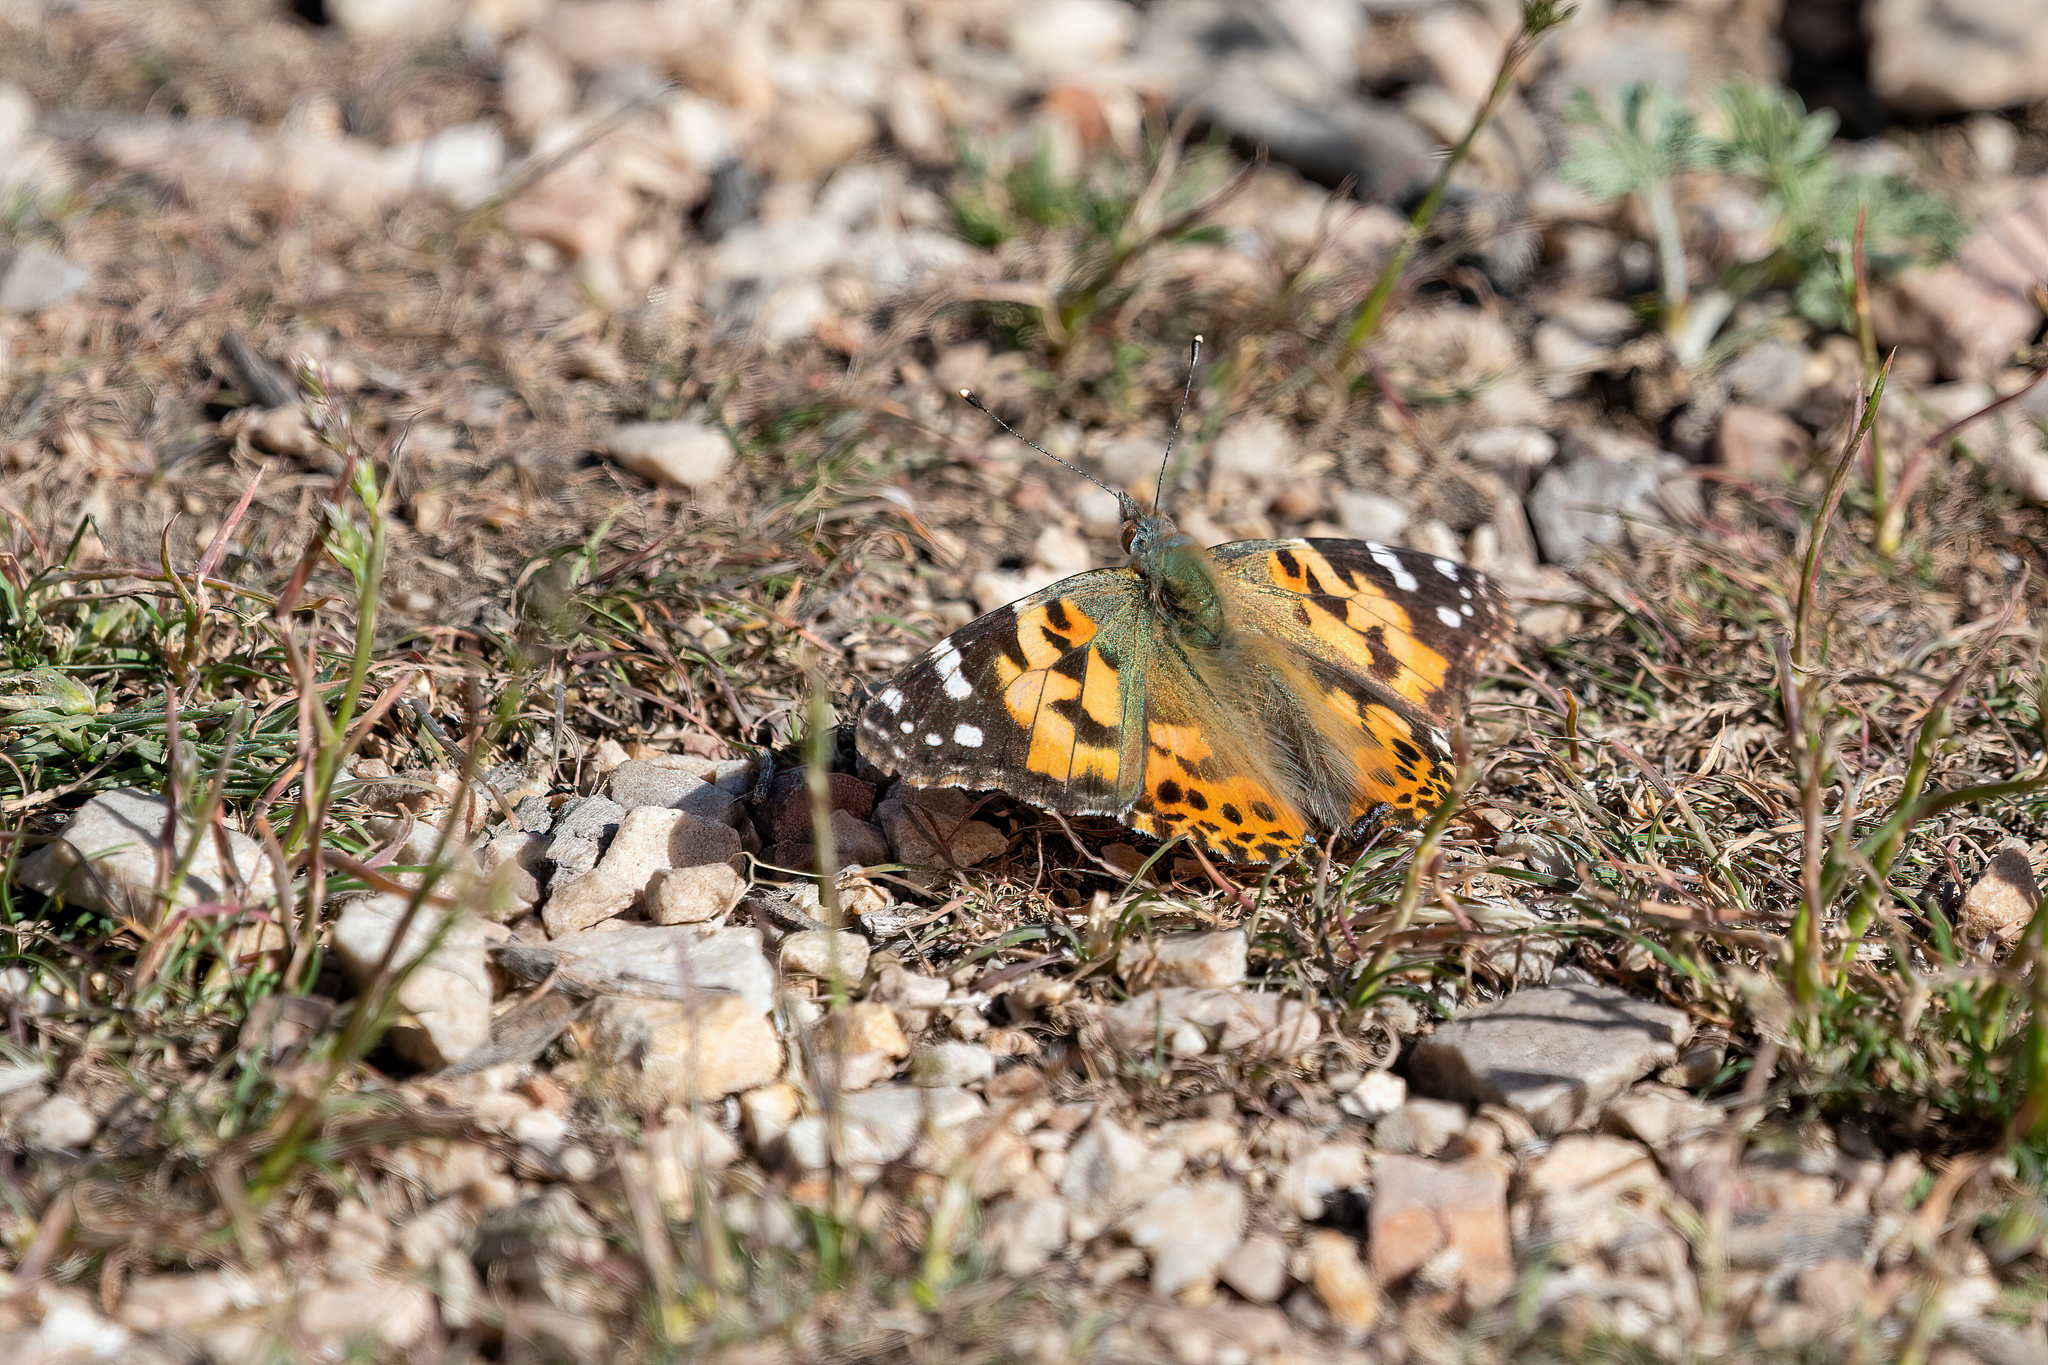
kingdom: Animalia
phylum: Arthropoda
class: Insecta
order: Lepidoptera
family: Nymphalidae
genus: Vanessa
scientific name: Vanessa cardui
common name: Painted lady
